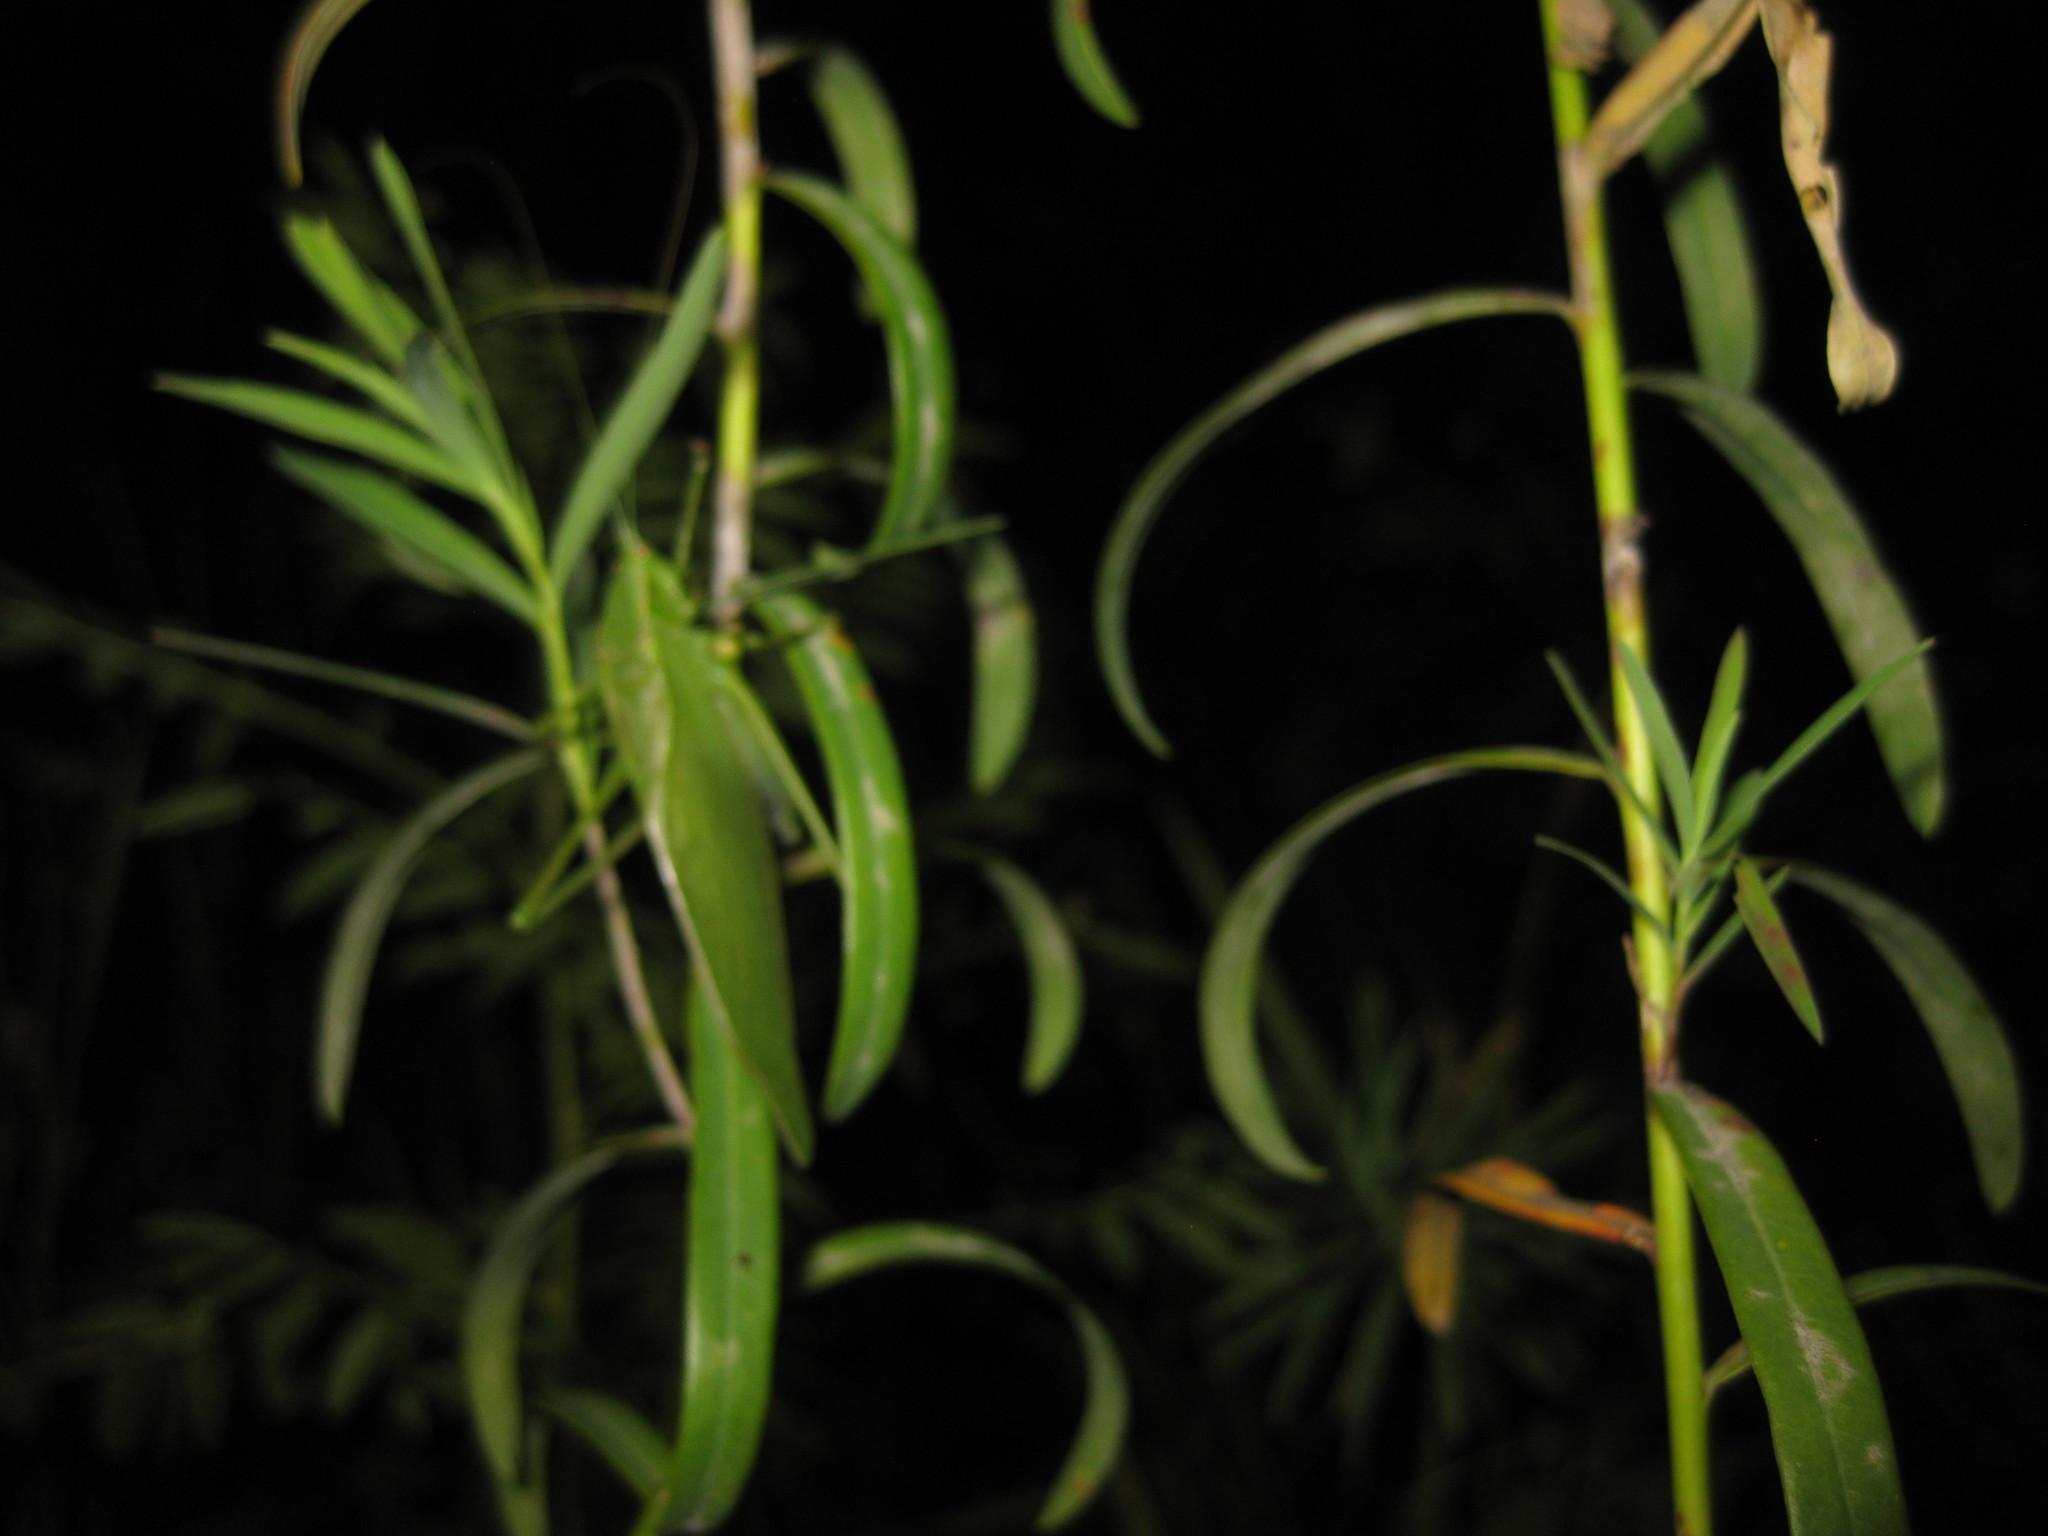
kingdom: Animalia
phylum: Arthropoda
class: Insecta
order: Orthoptera
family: Tettigoniidae
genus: Scudderia
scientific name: Scudderia pistillata
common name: Broad-winged bush-katydid
